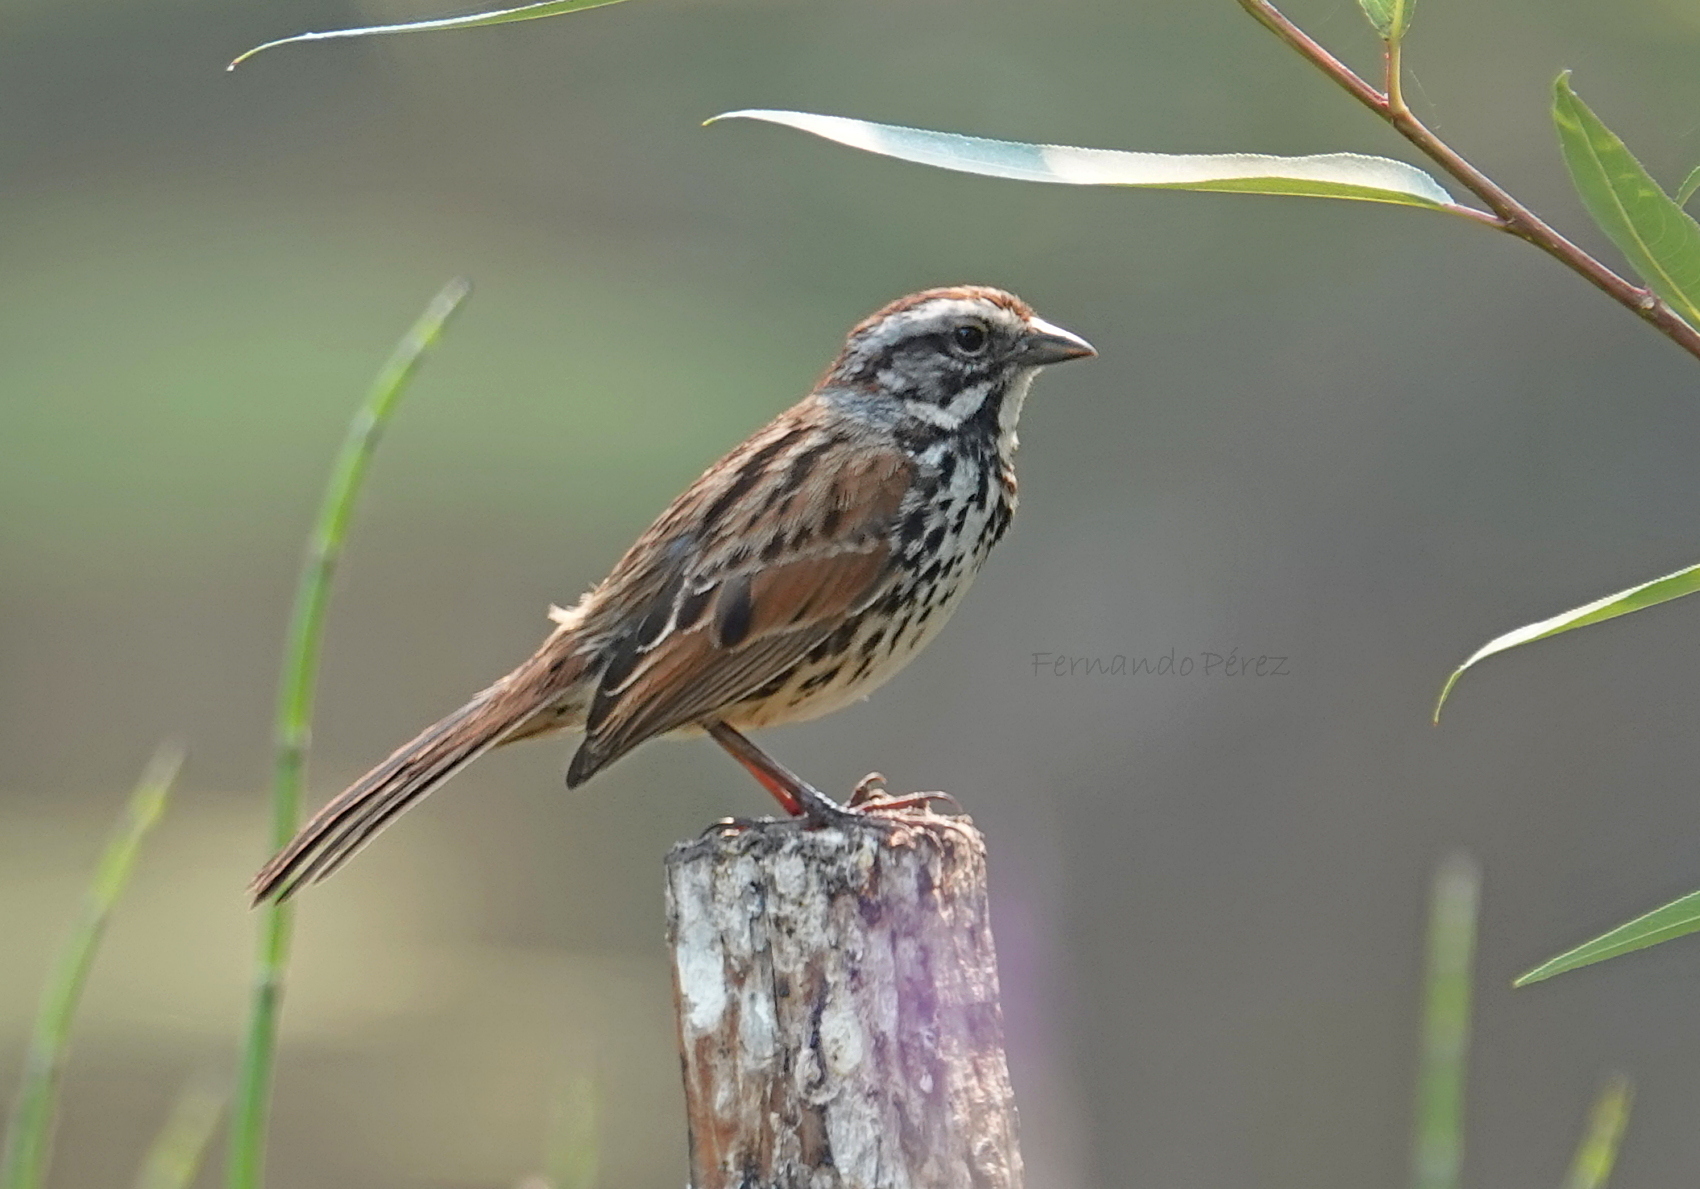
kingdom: Animalia
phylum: Chordata
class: Aves
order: Passeriformes
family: Passerellidae
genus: Melospiza
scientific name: Melospiza melodia
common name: Song sparrow
